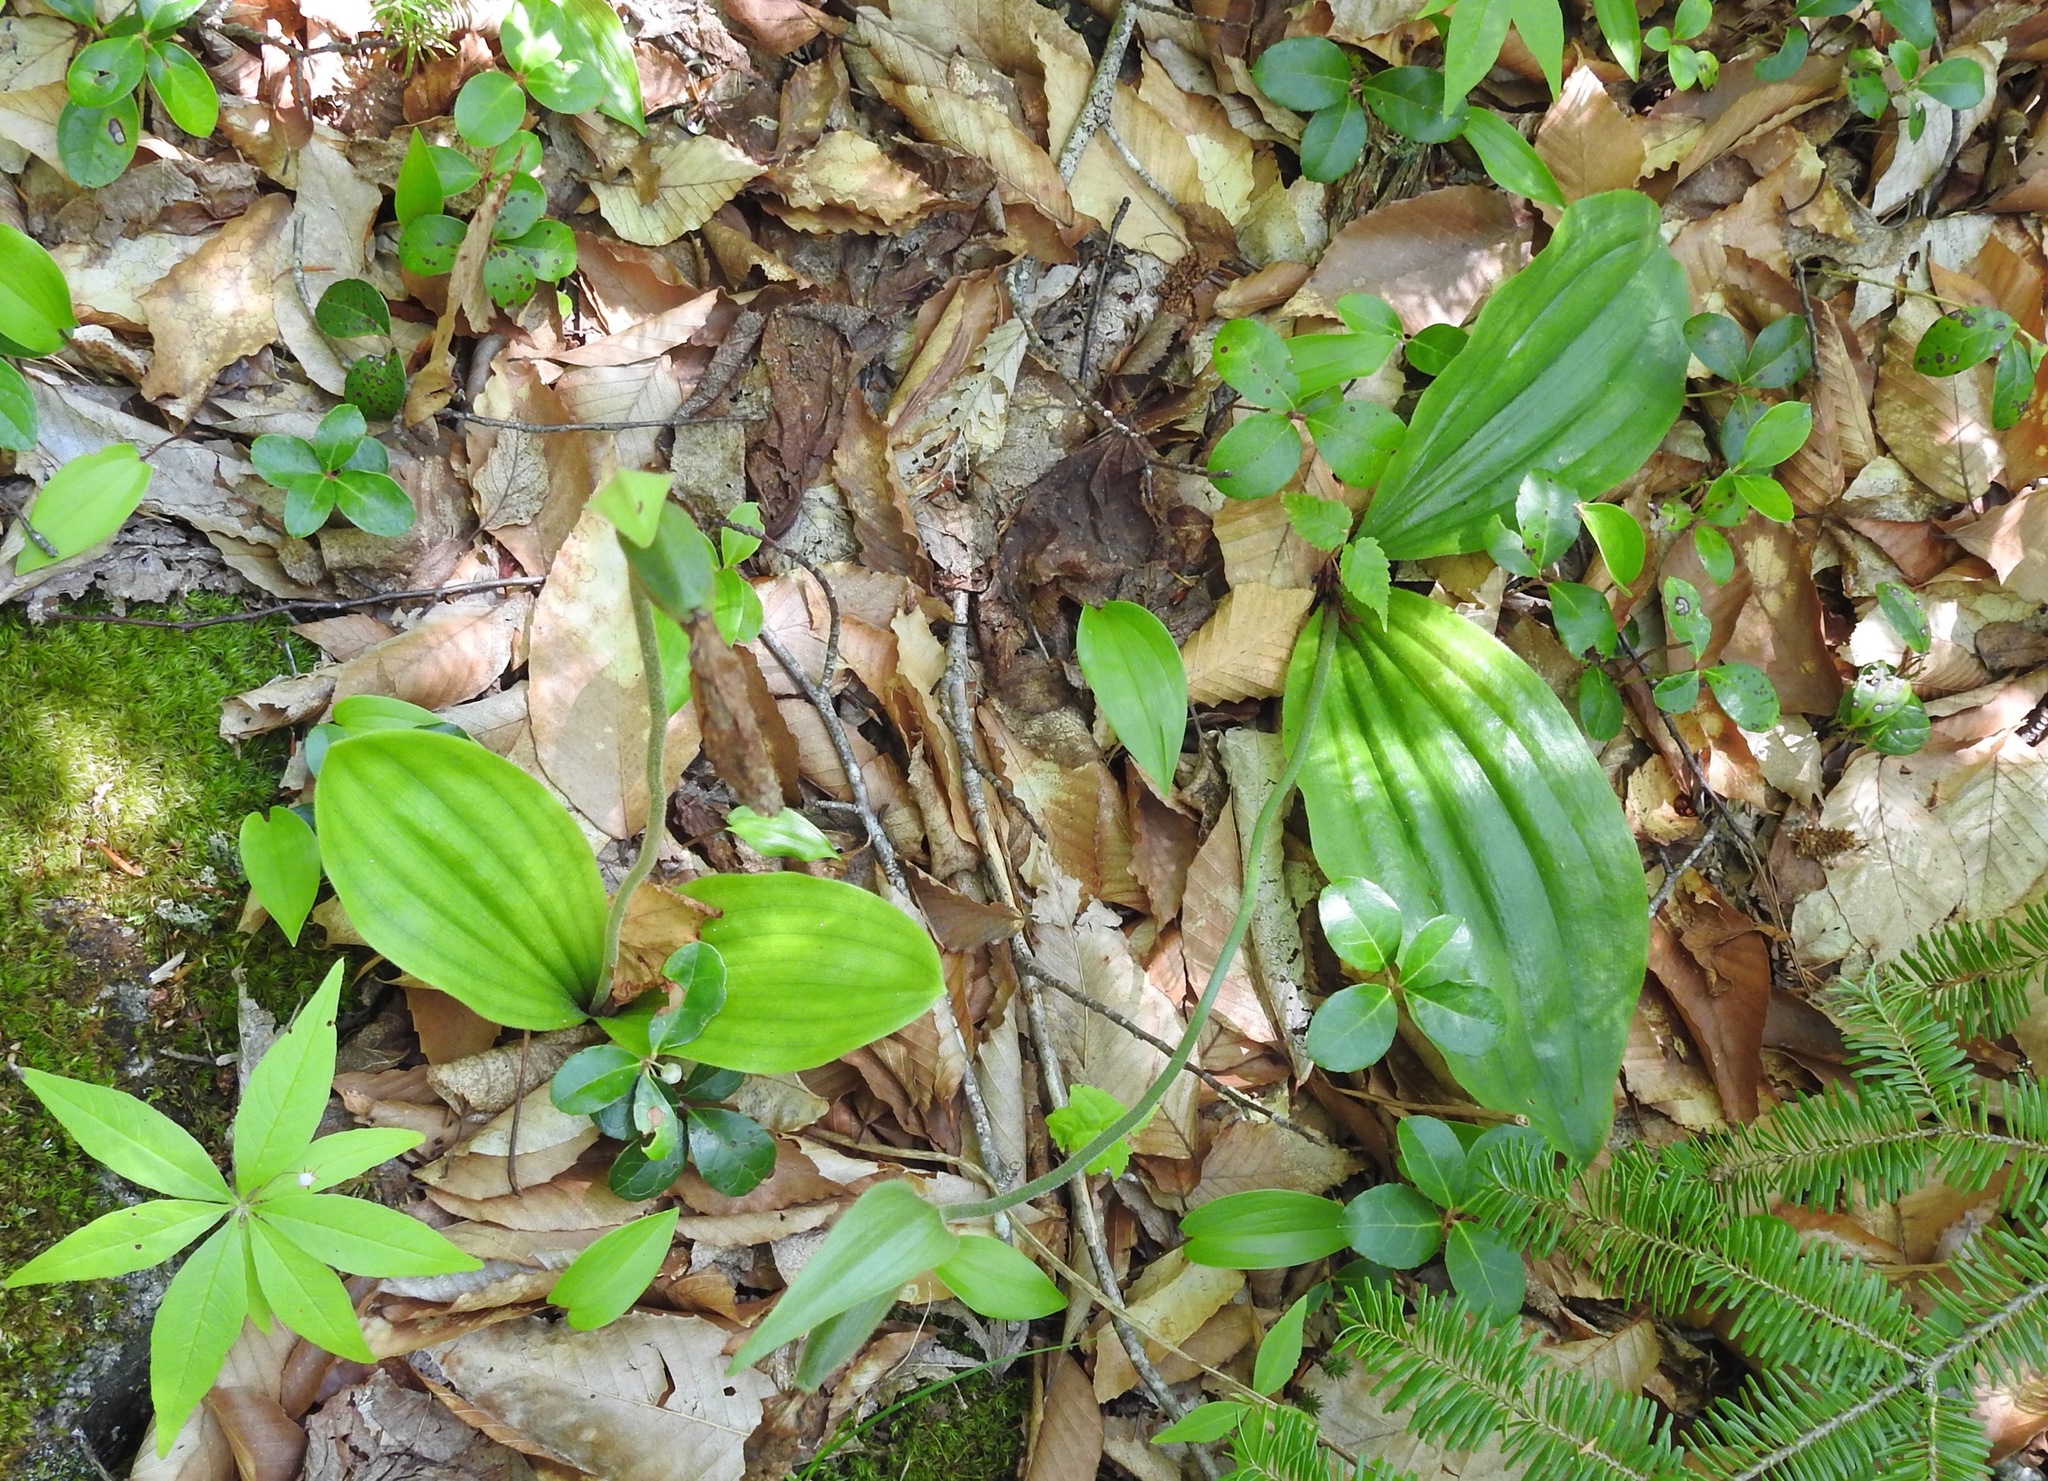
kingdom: Plantae
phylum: Tracheophyta
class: Liliopsida
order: Asparagales
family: Orchidaceae
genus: Cypripedium
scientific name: Cypripedium acaule
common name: Pink lady's-slipper
